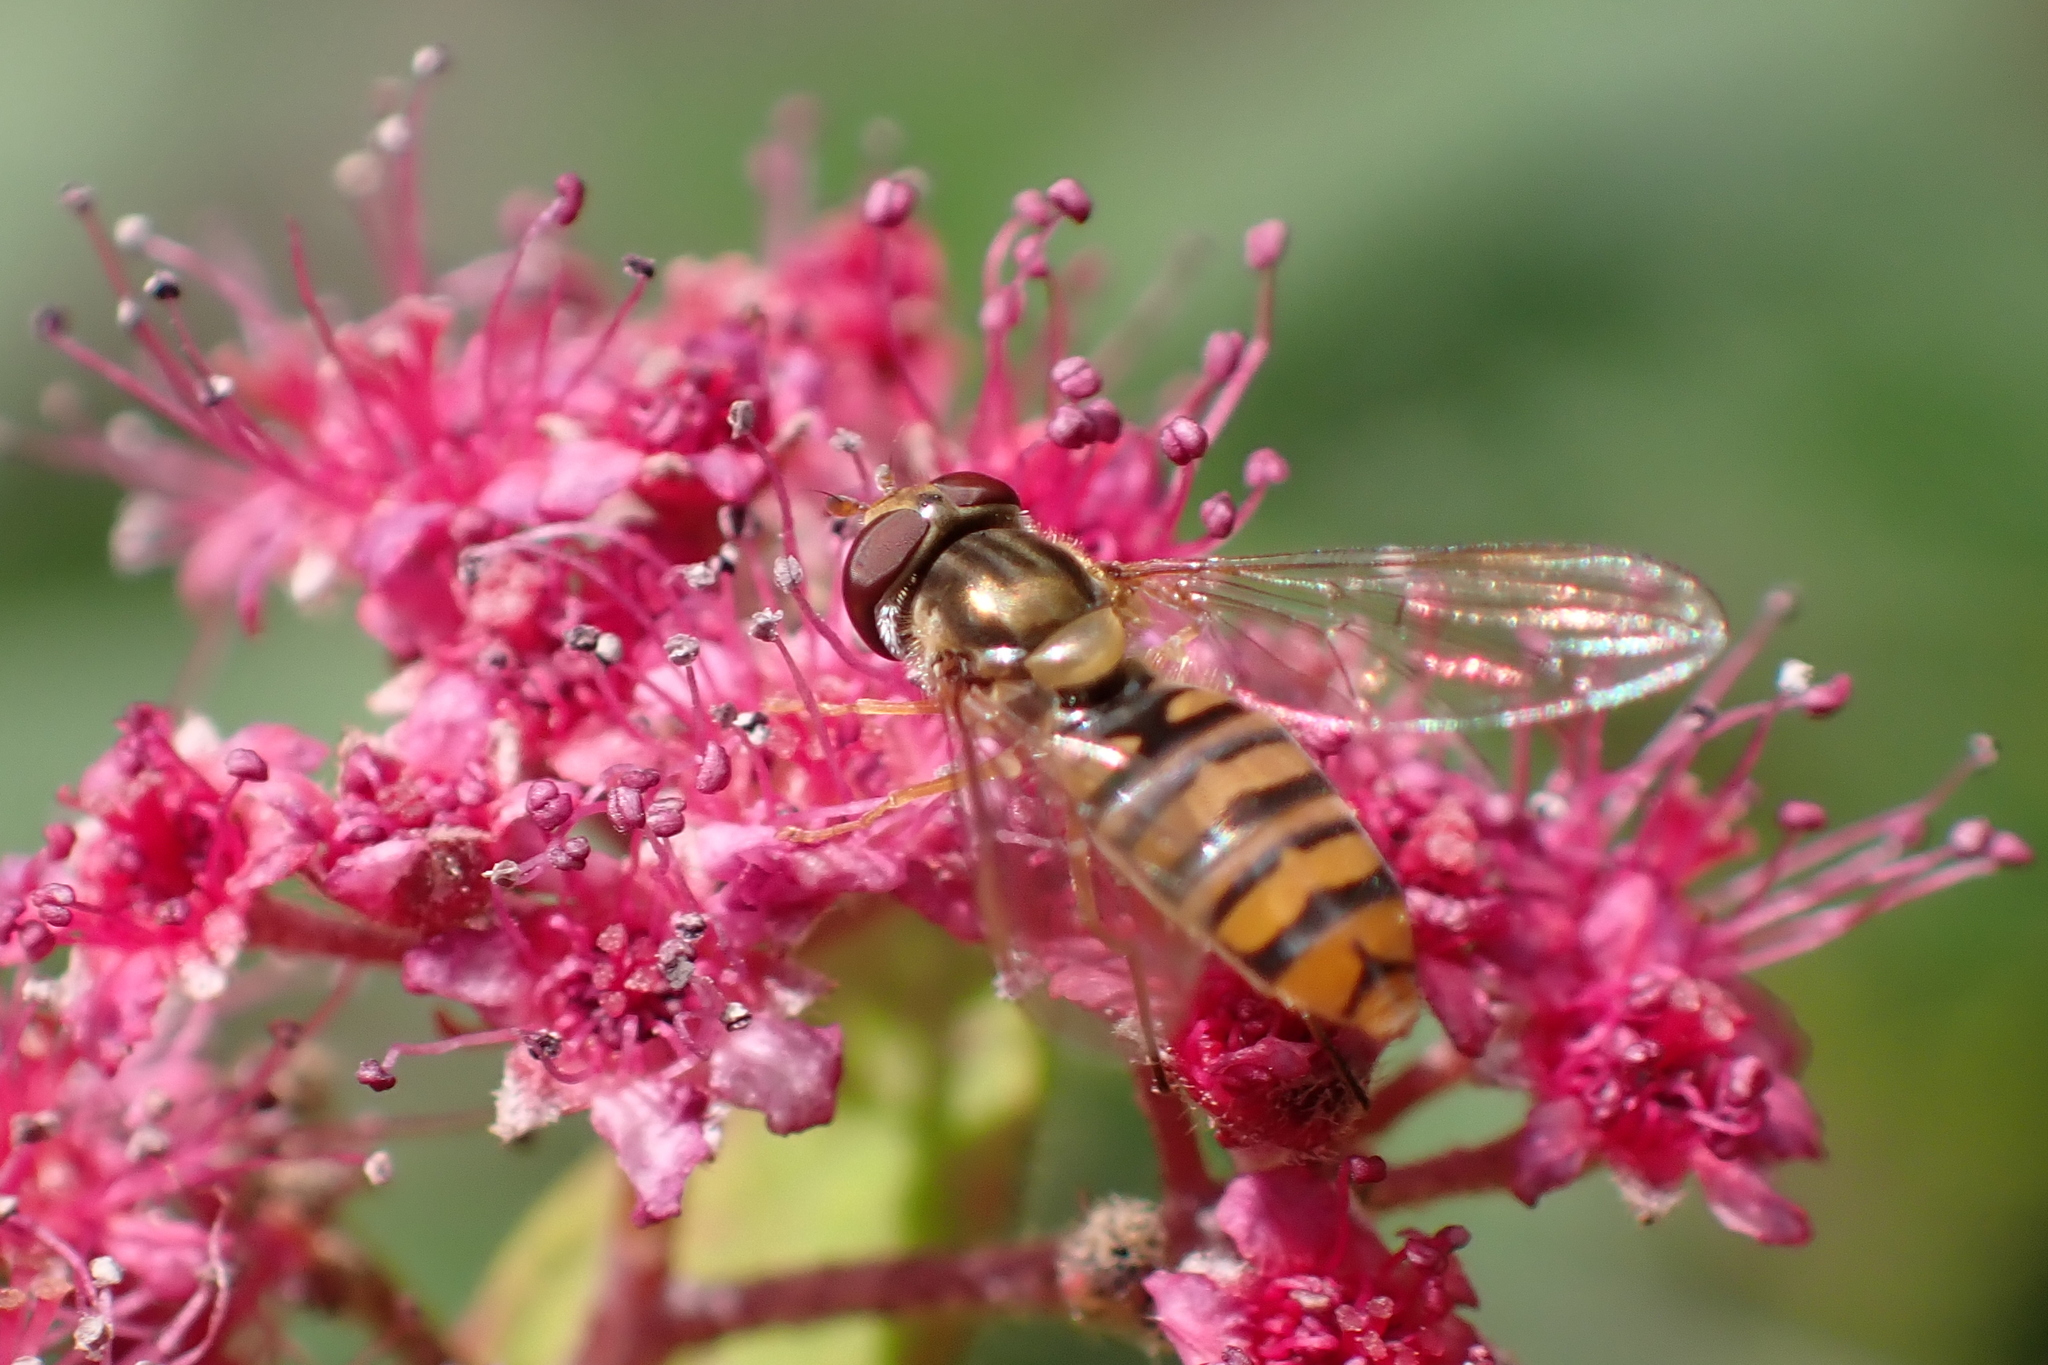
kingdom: Animalia
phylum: Arthropoda
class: Insecta
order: Diptera
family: Syrphidae
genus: Episyrphus
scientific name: Episyrphus balteatus
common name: Marmalade hoverfly
